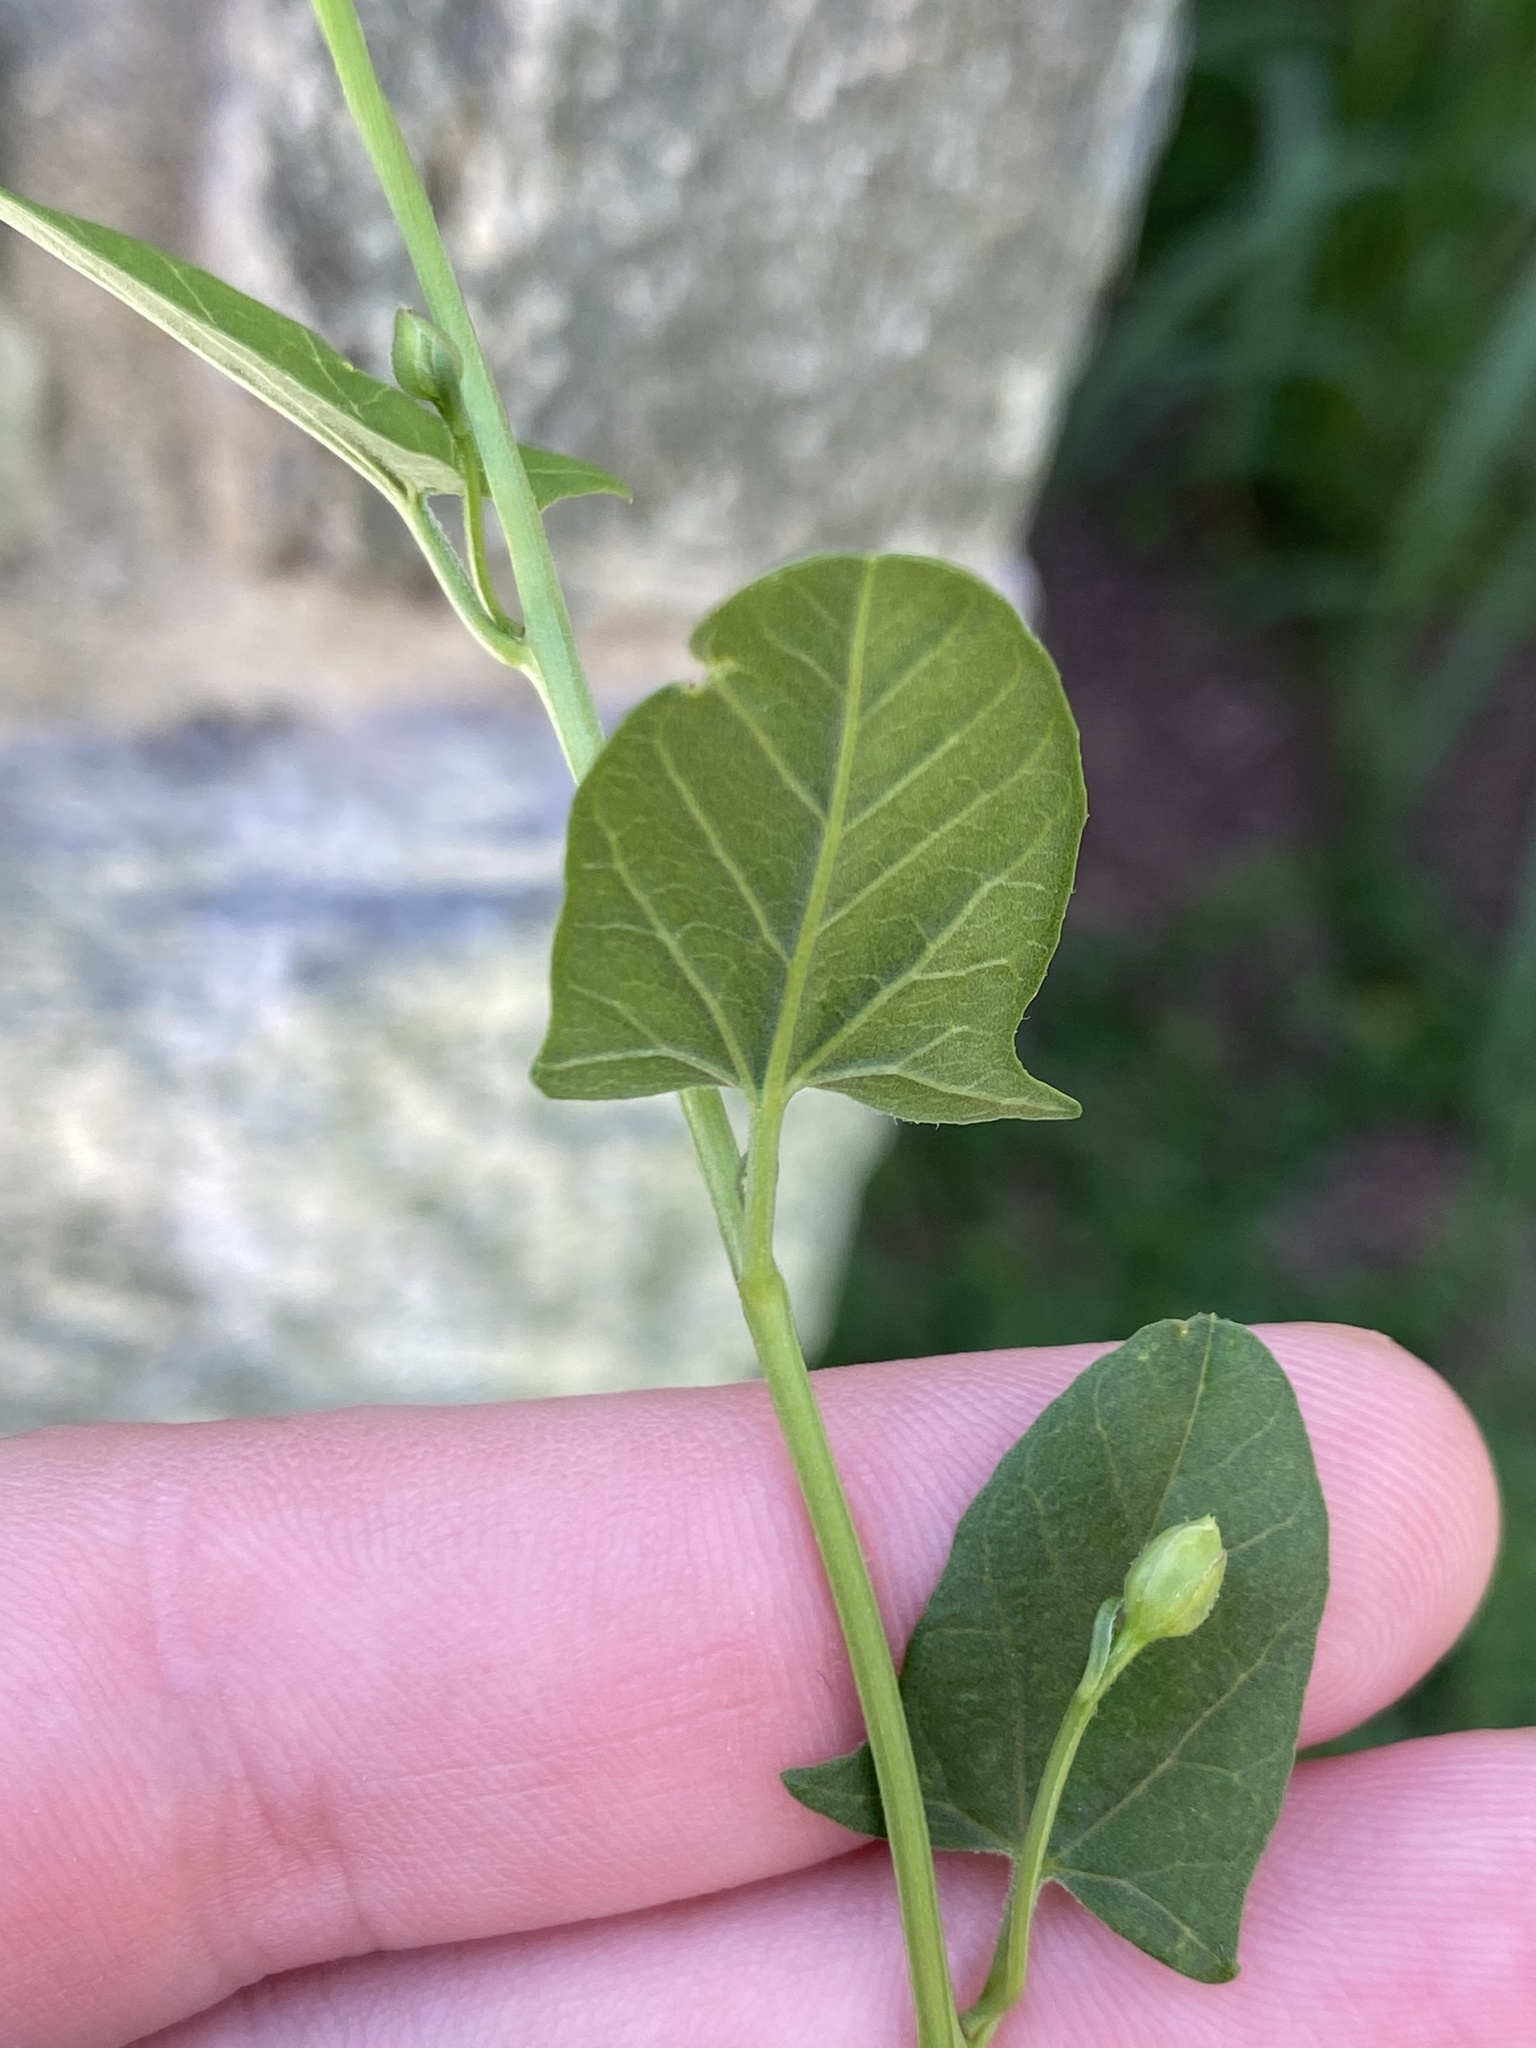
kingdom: Plantae
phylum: Tracheophyta
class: Magnoliopsida
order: Solanales
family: Convolvulaceae
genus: Convolvulus
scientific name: Convolvulus arvensis
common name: Field bindweed
